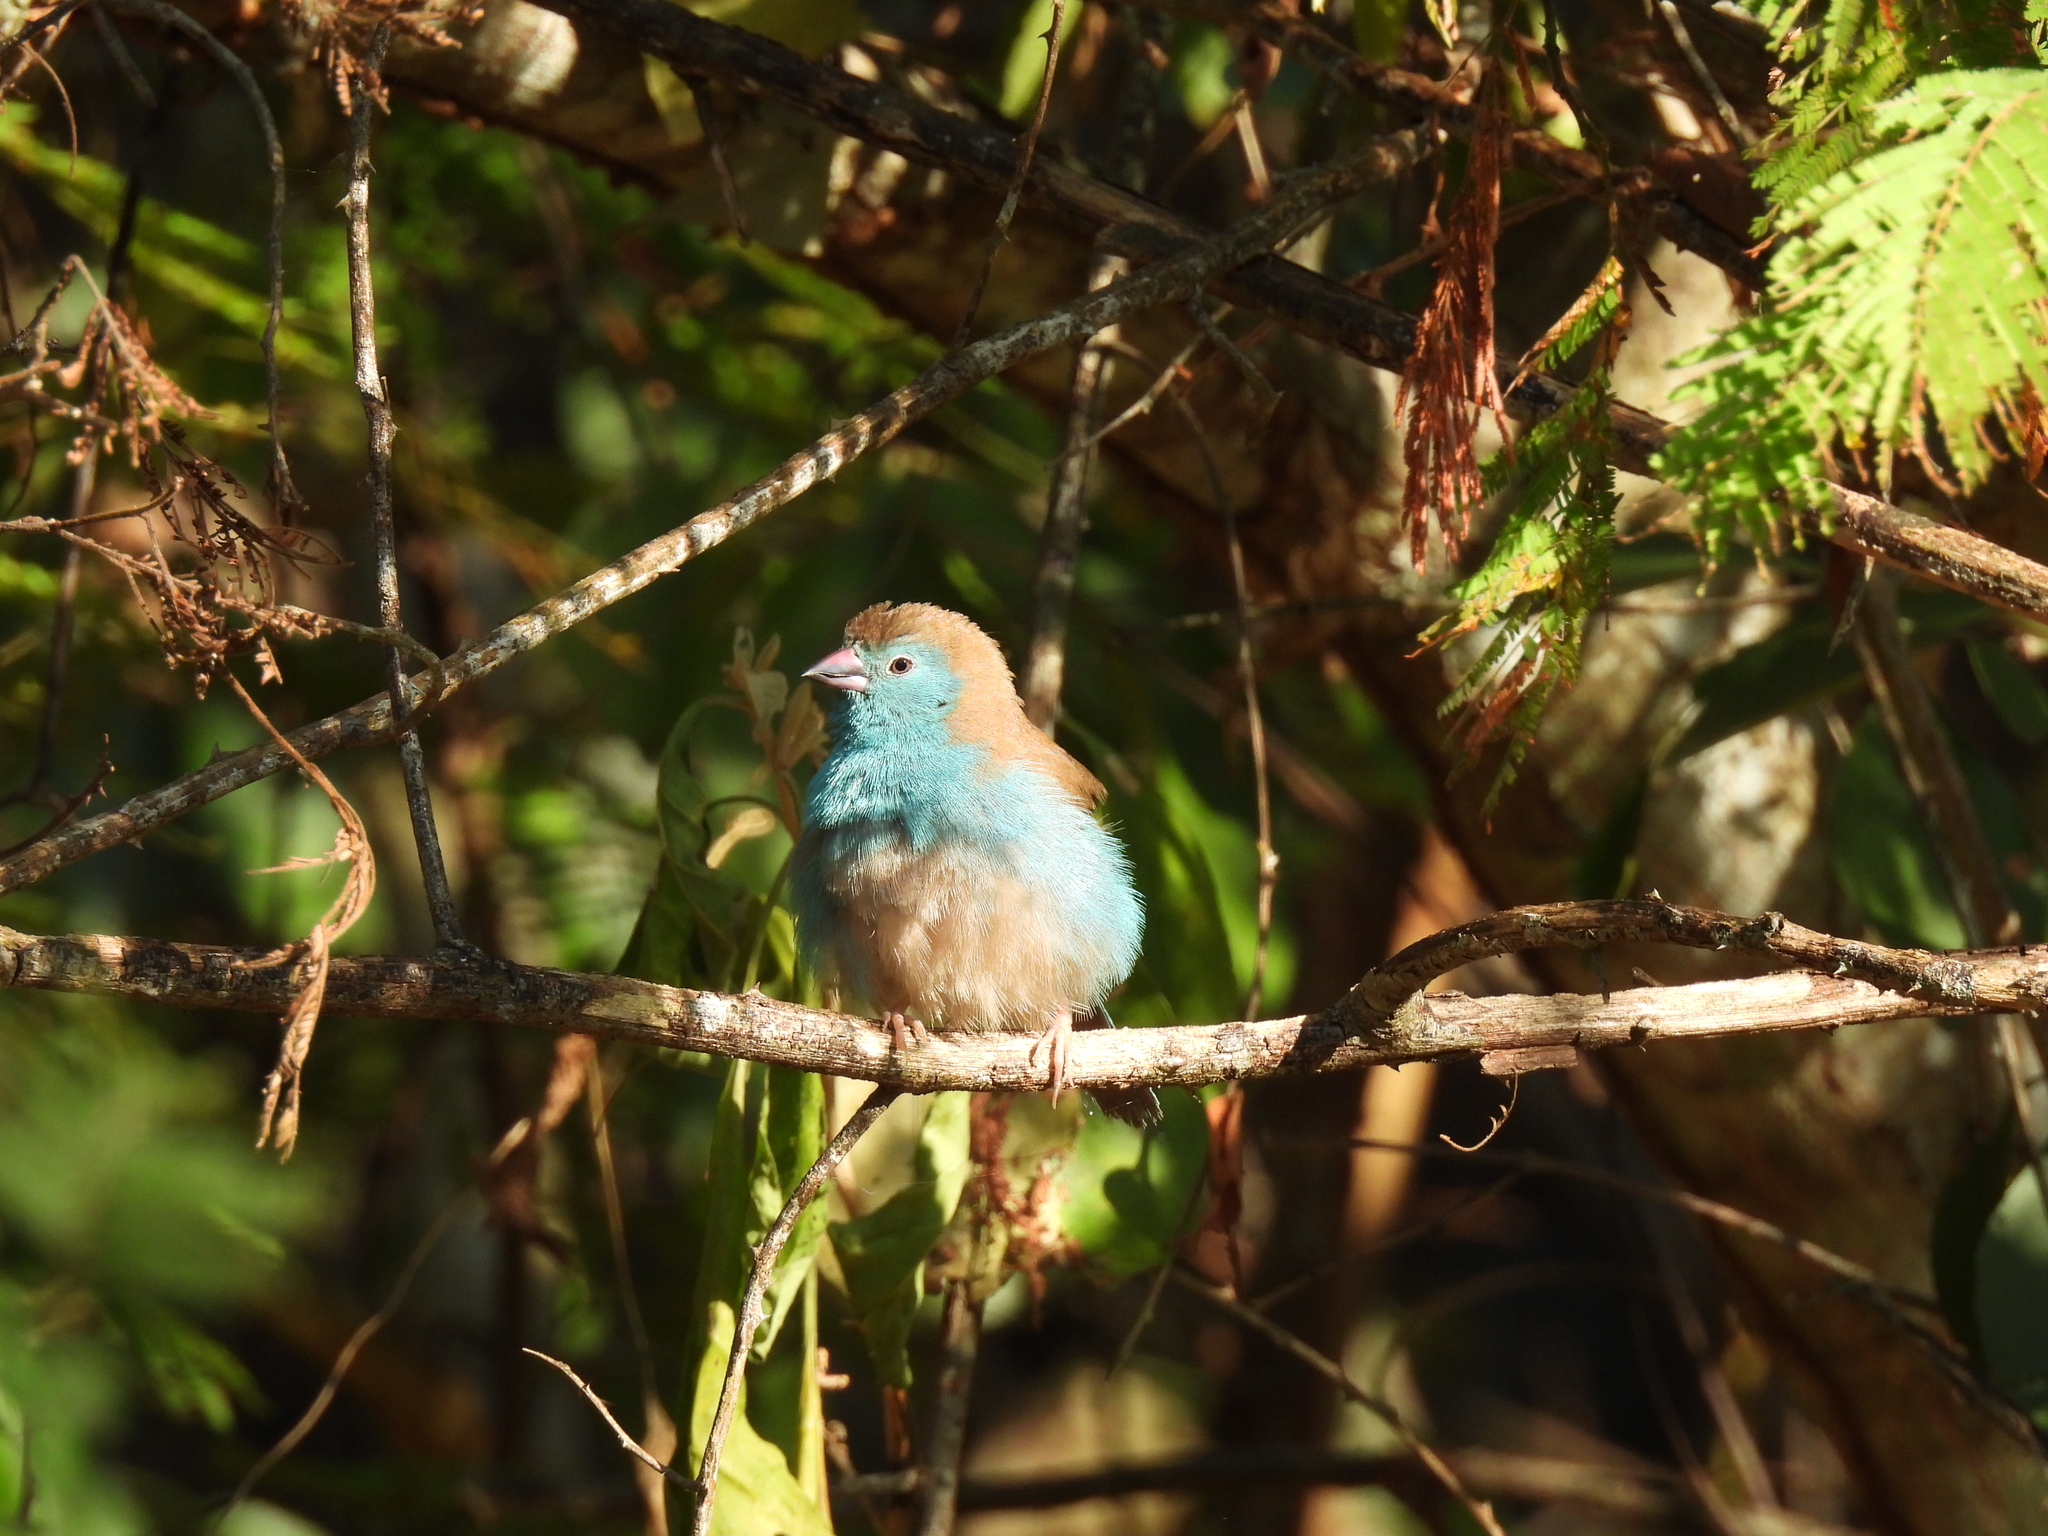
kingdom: Animalia
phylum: Chordata
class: Aves
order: Passeriformes
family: Estrildidae
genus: Uraeginthus
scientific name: Uraeginthus angolensis
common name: Blue waxbill
